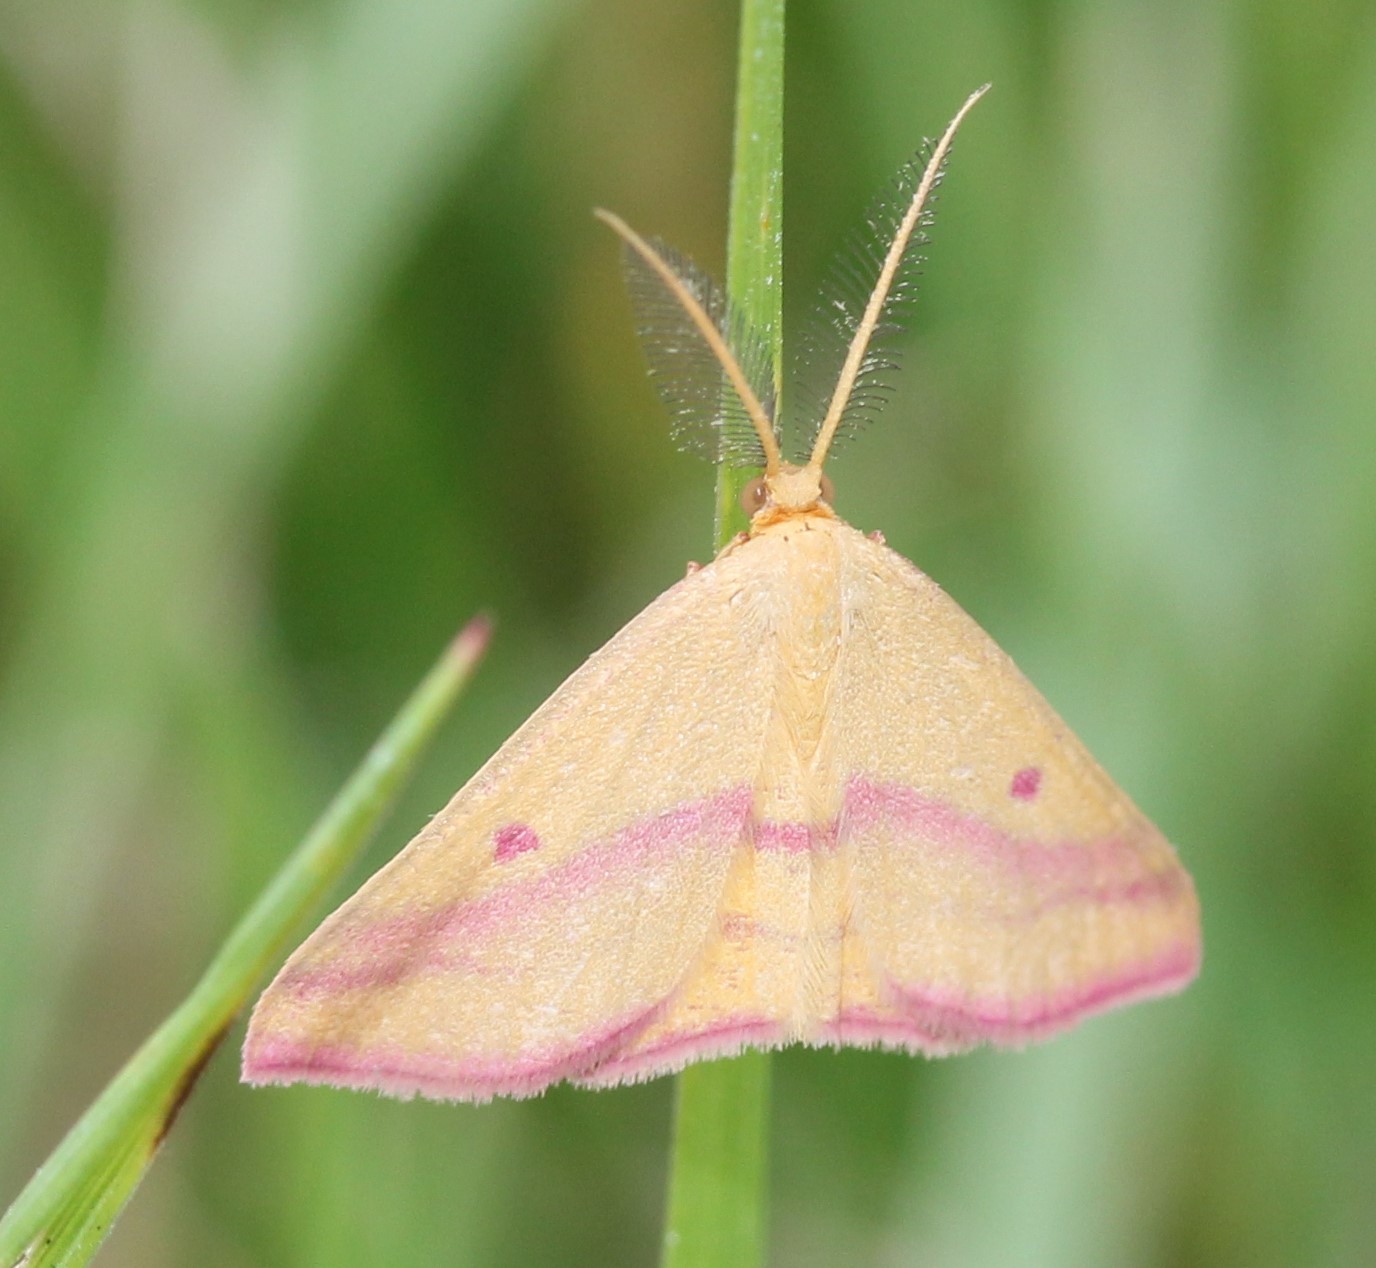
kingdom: Animalia
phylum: Arthropoda
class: Insecta
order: Lepidoptera
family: Geometridae
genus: Haematopis
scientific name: Haematopis grataria
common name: Chickweed geometer
